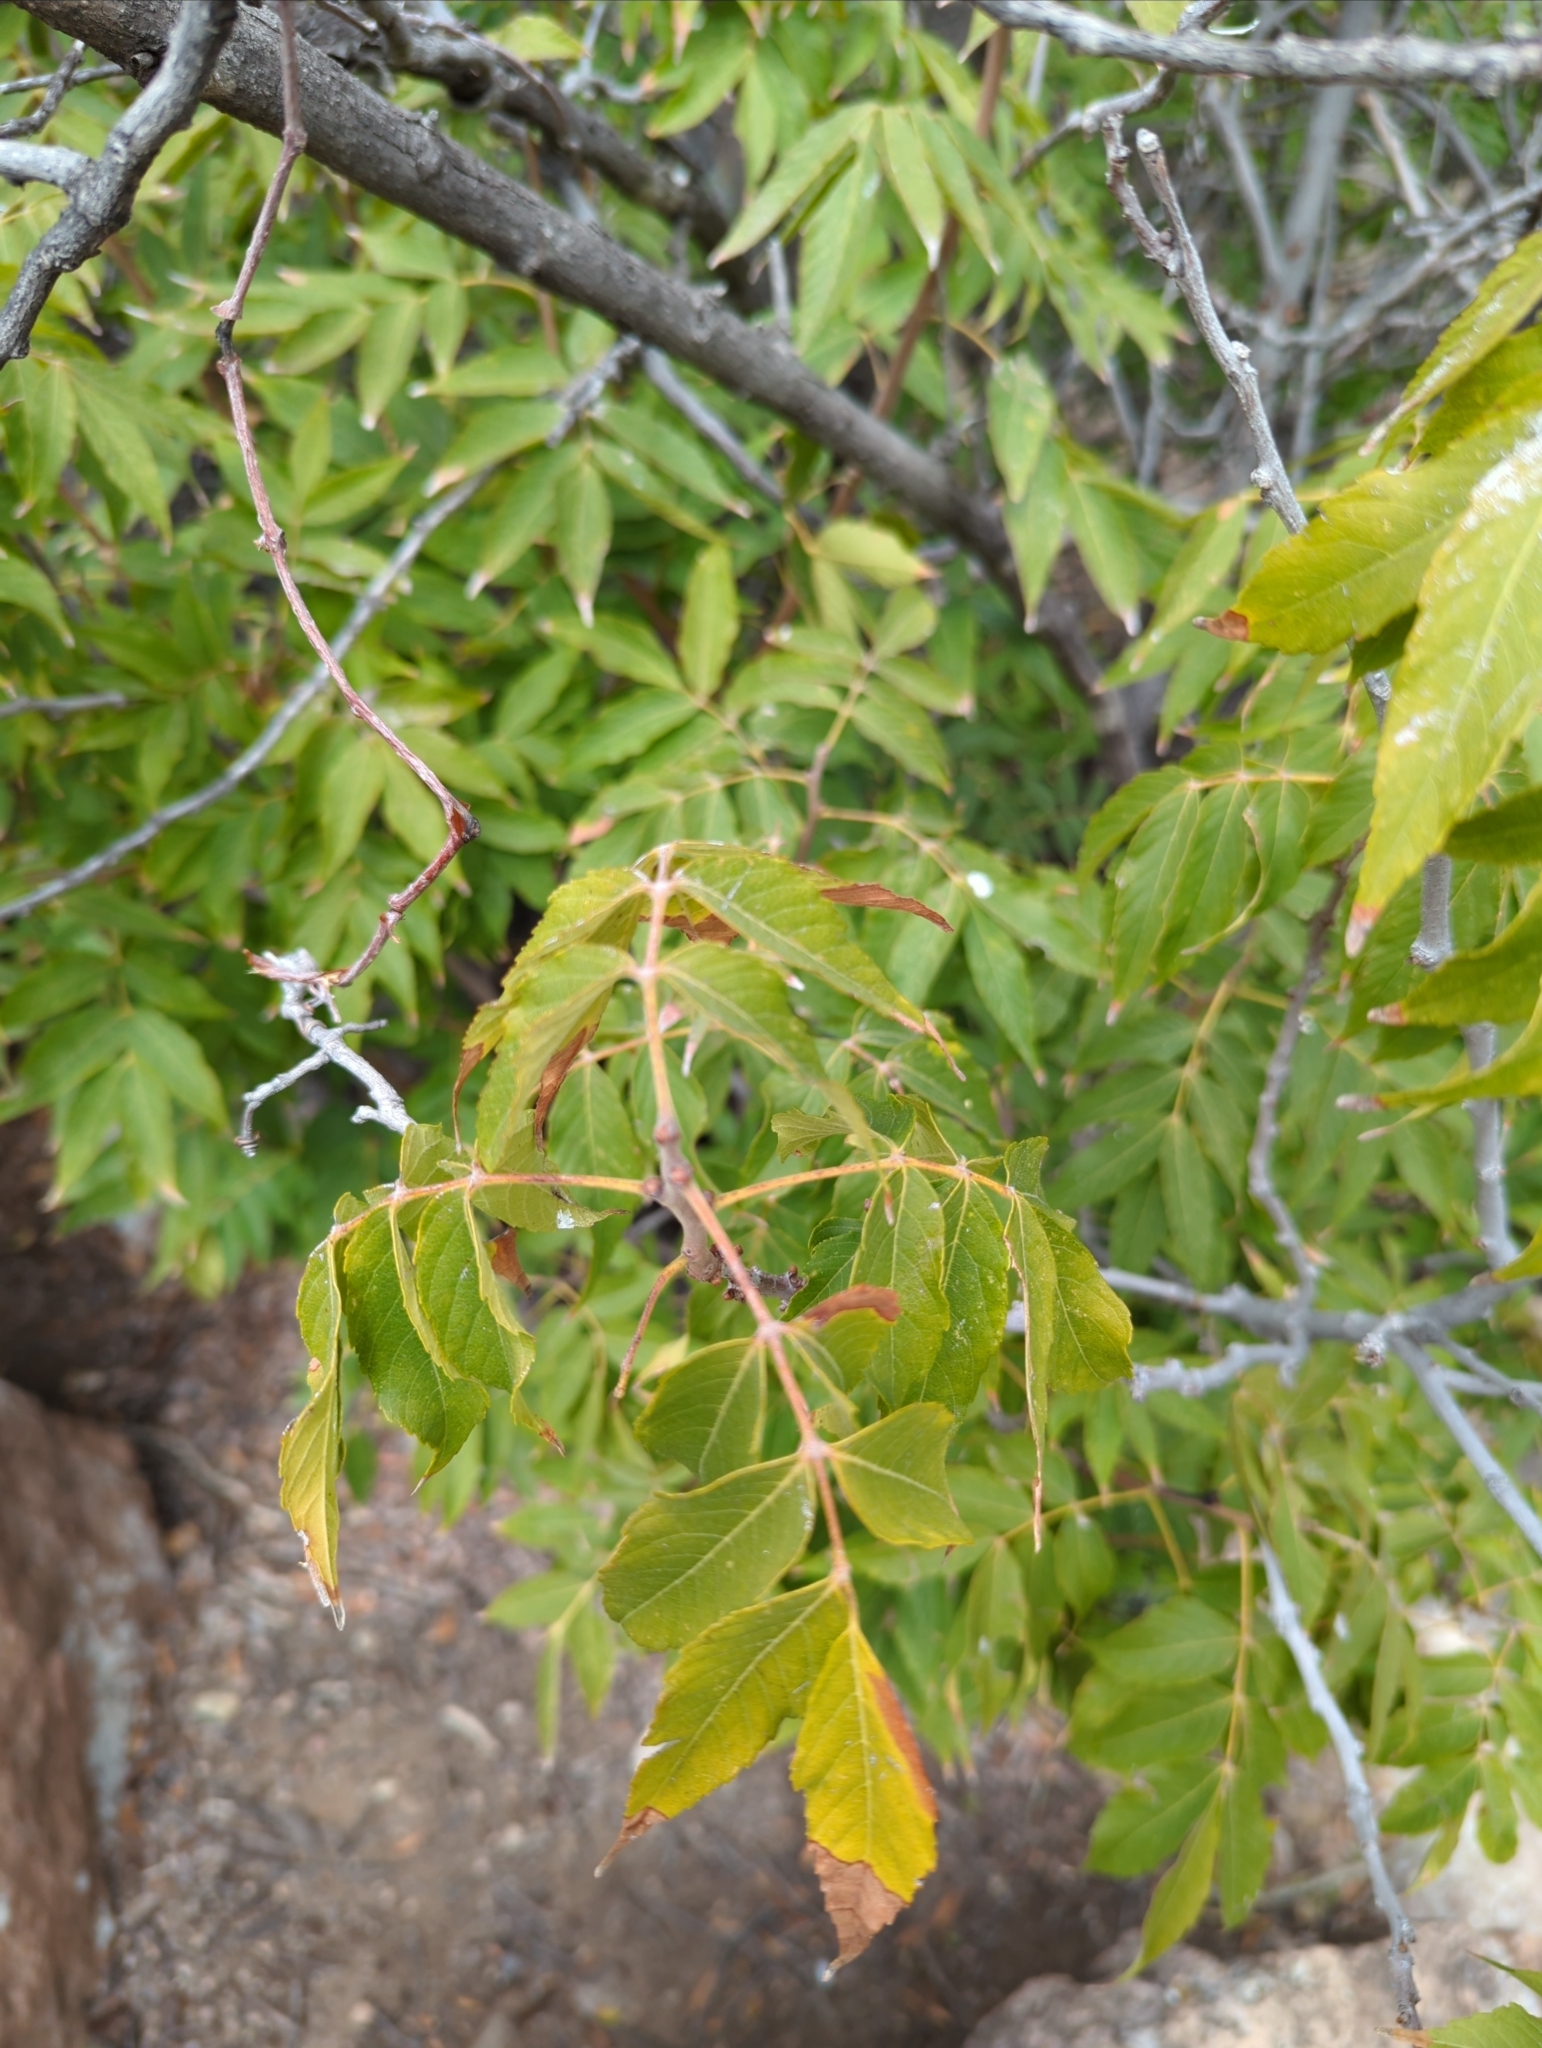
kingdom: Plantae
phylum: Tracheophyta
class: Magnoliopsida
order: Sapindales
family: Sapindaceae
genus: Ungnadia
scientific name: Ungnadia speciosa
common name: Texas-buckeye
